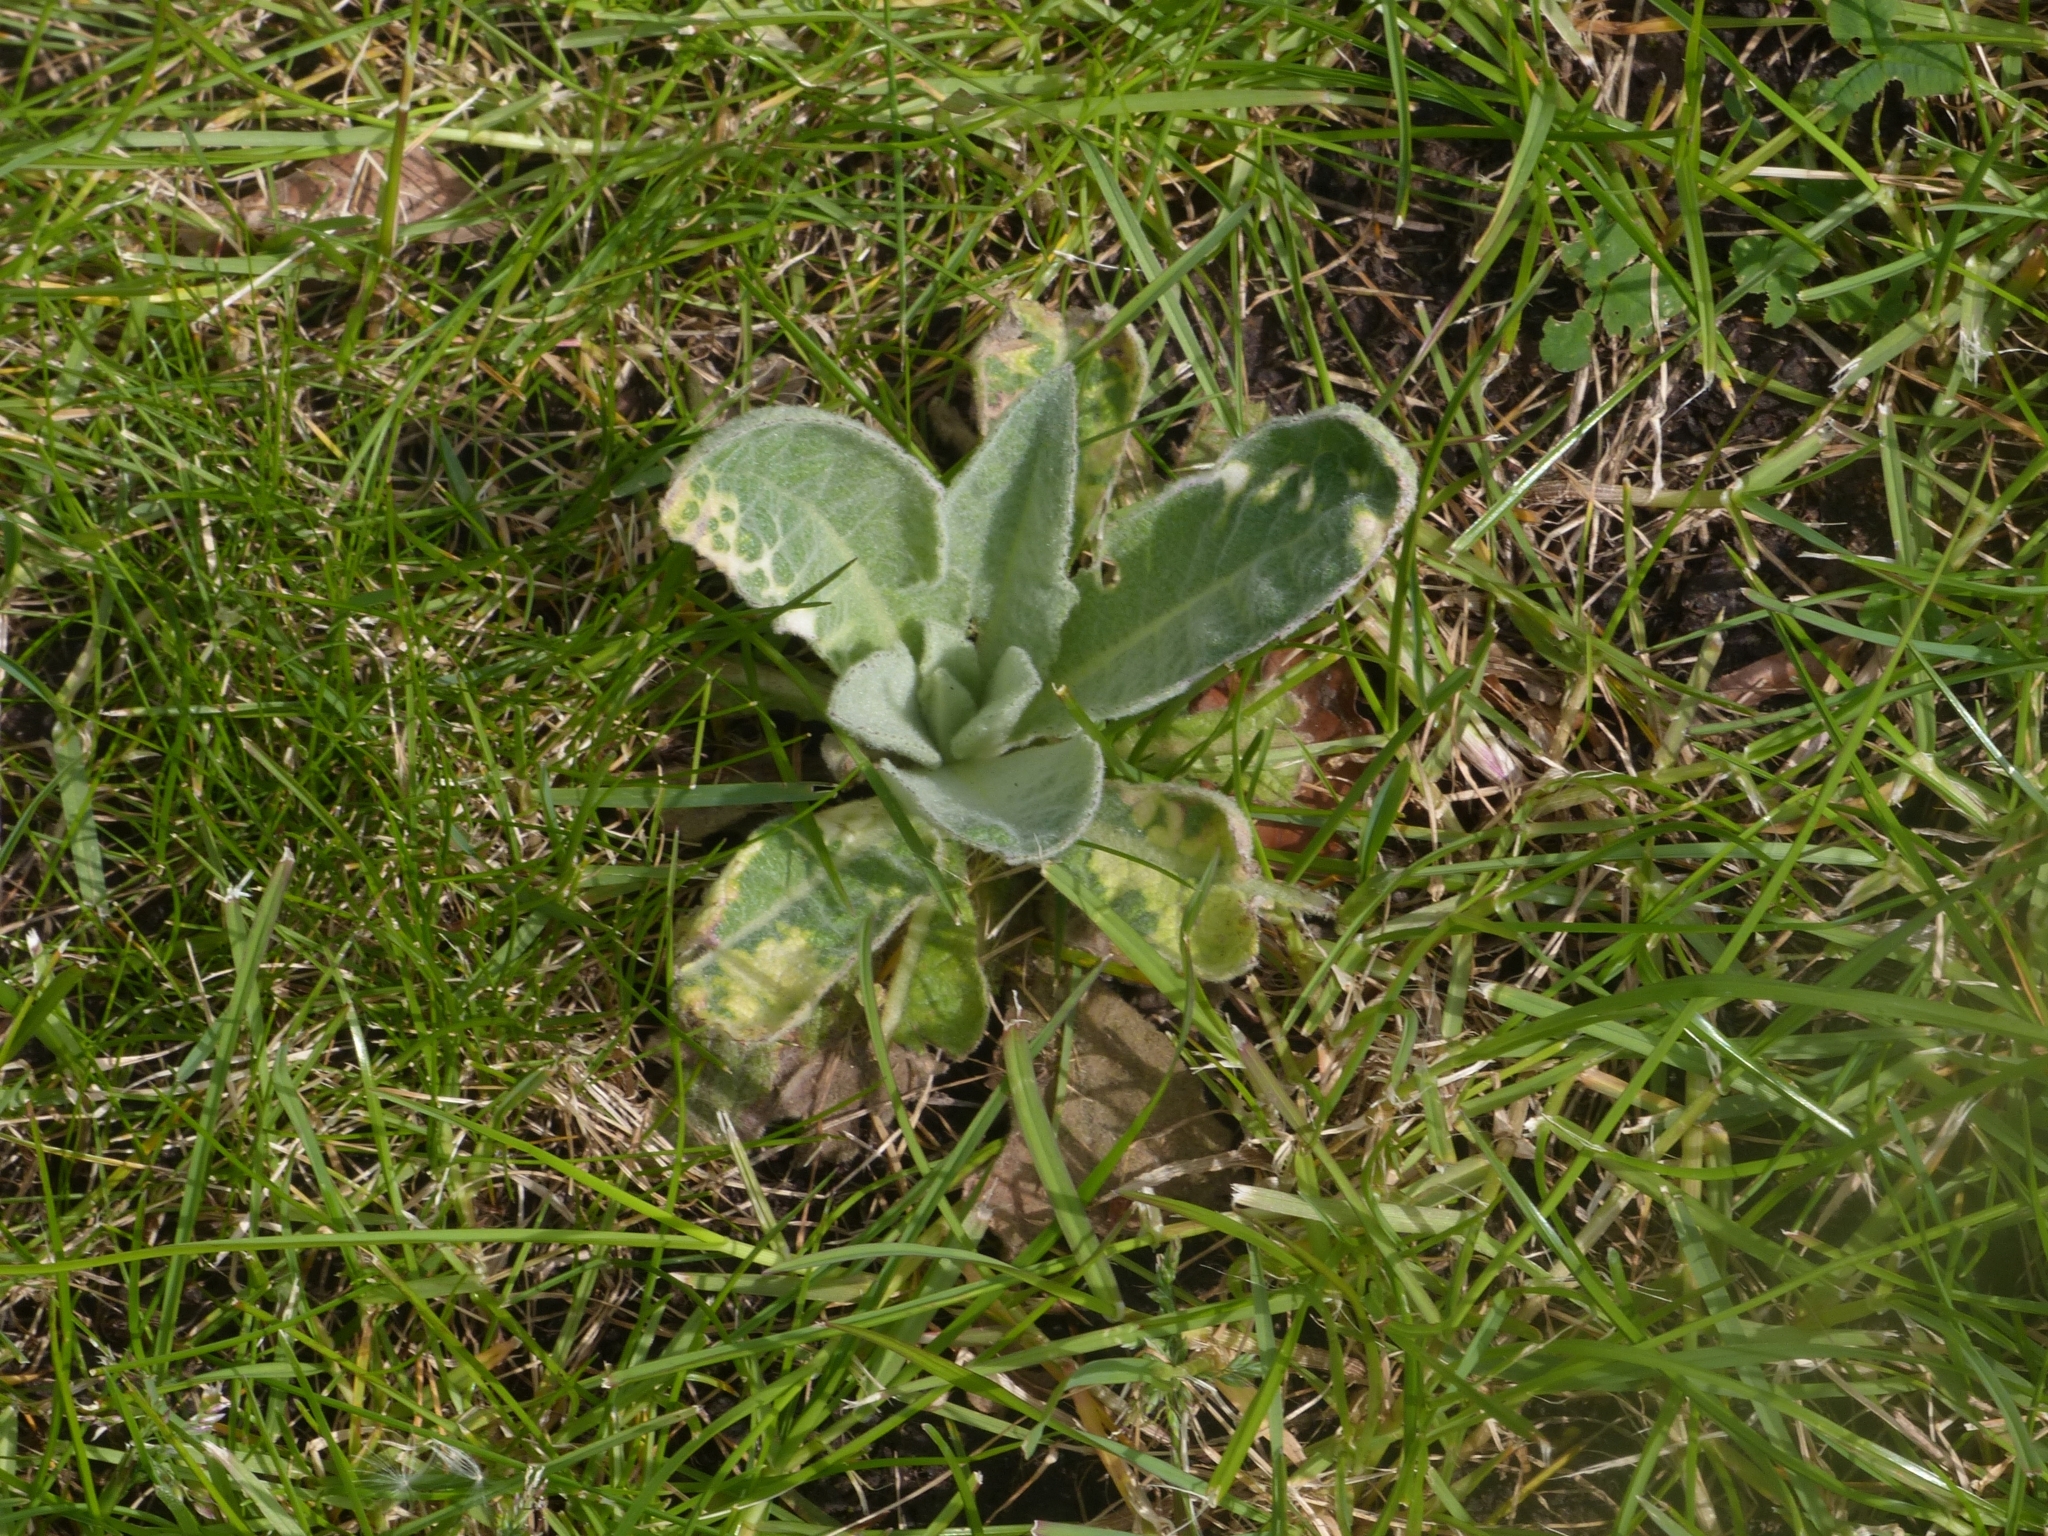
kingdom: Plantae
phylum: Tracheophyta
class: Magnoliopsida
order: Lamiales
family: Scrophulariaceae
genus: Verbascum
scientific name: Verbascum thapsus
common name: Common mullein
